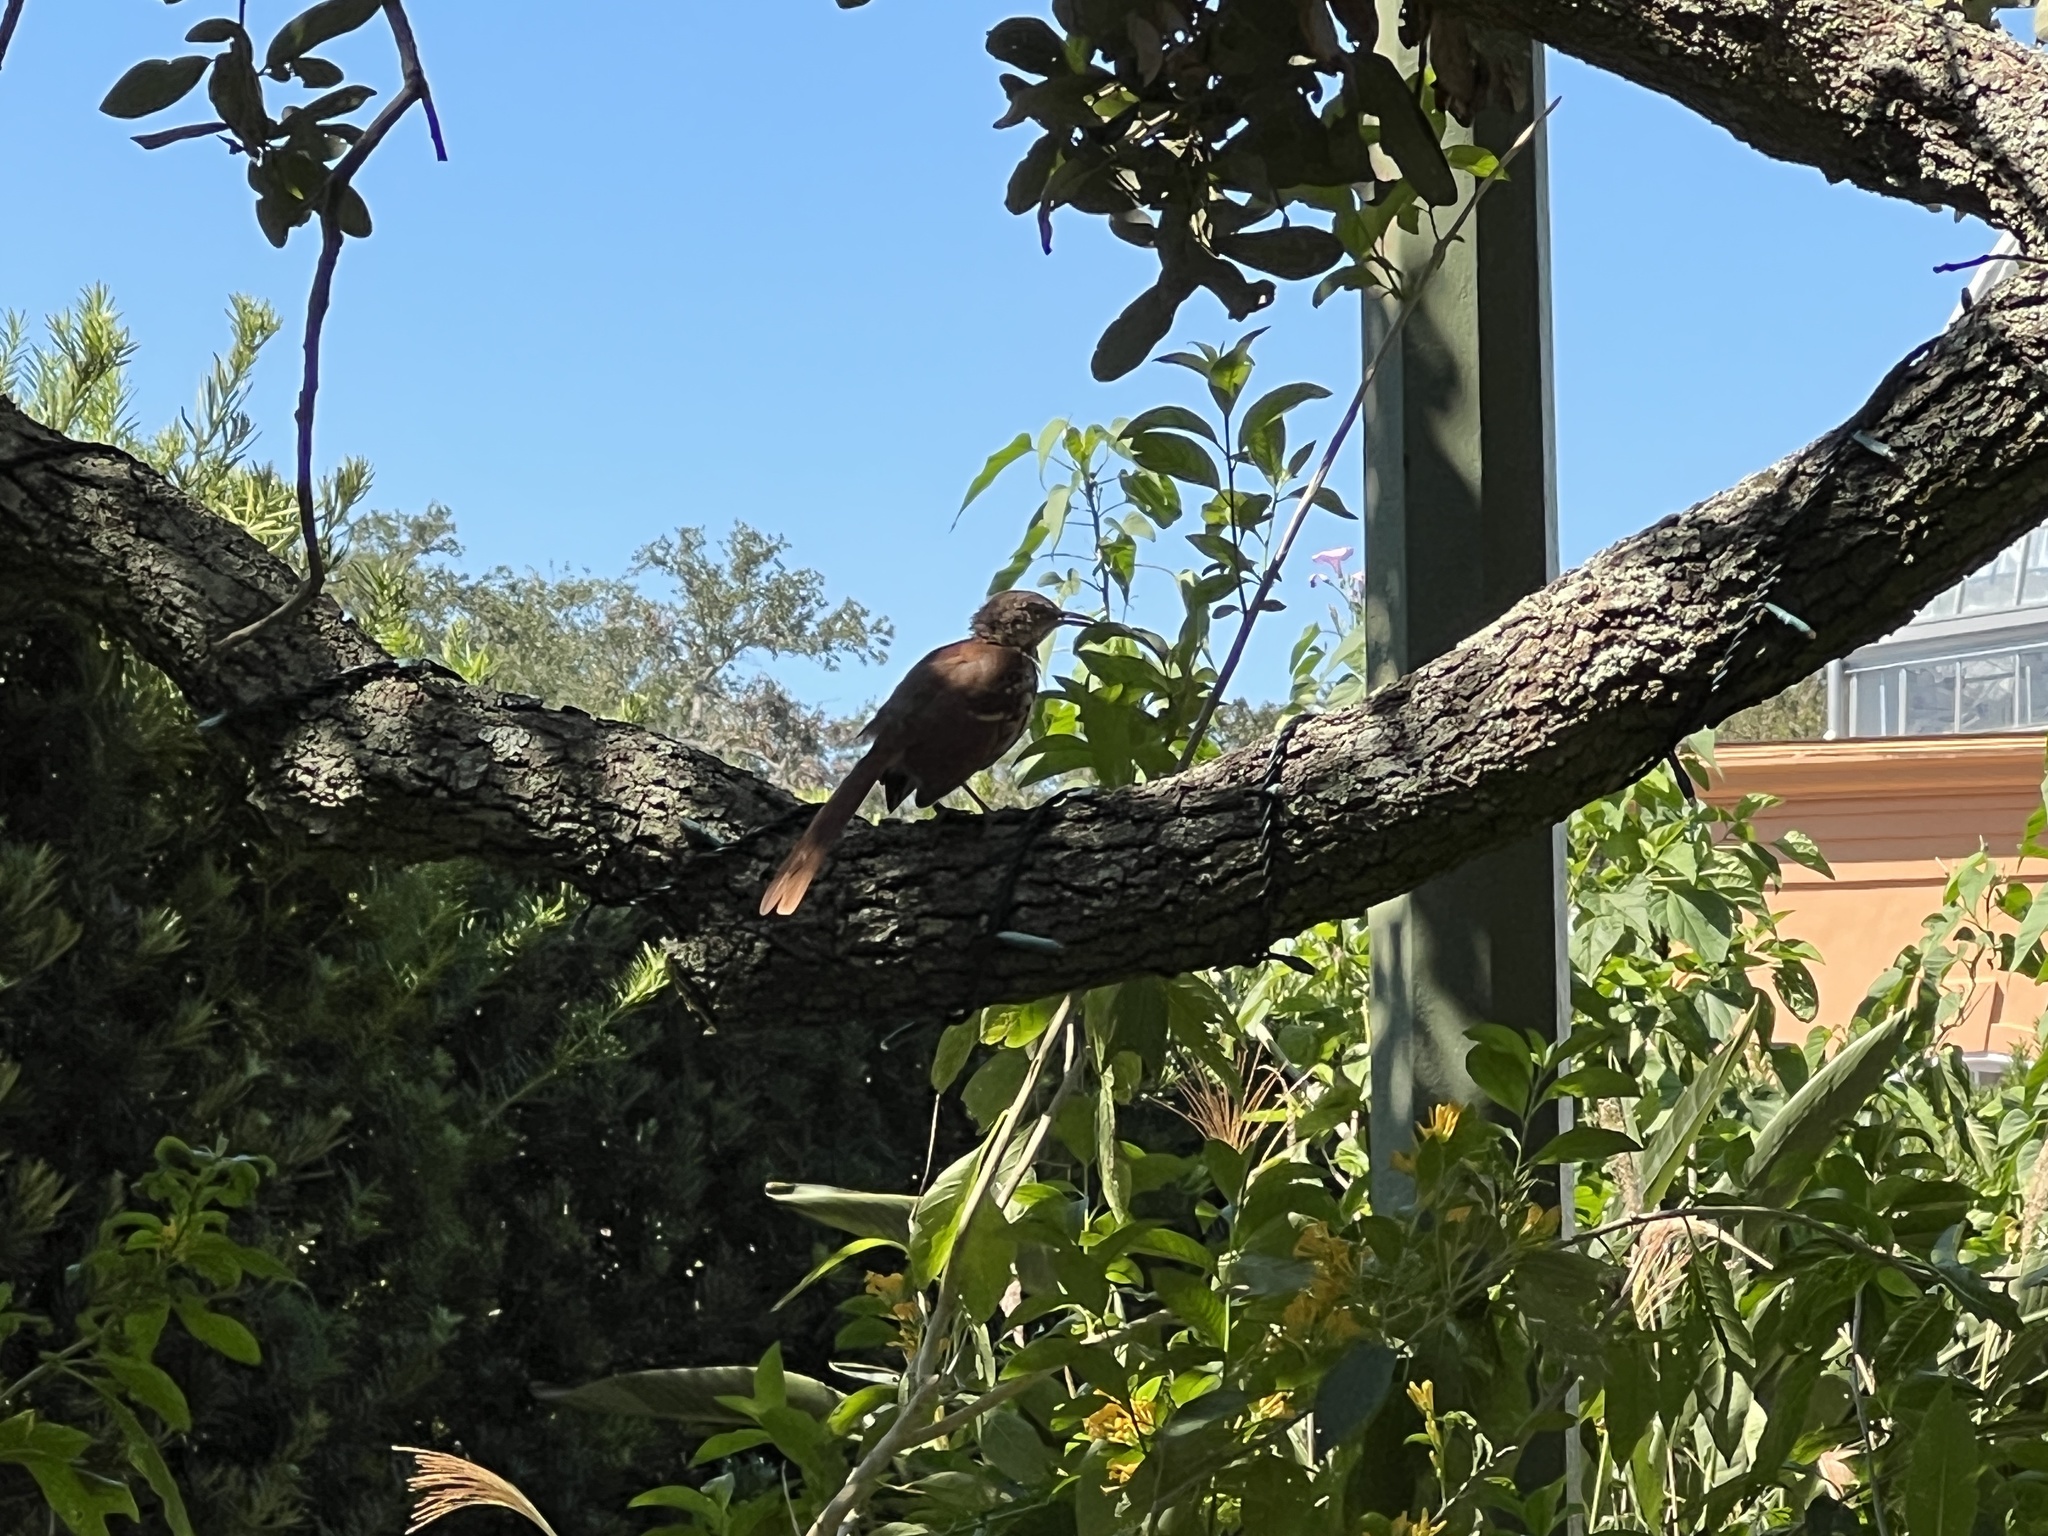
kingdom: Animalia
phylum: Chordata
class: Aves
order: Passeriformes
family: Mimidae
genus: Toxostoma
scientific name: Toxostoma rufum
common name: Brown thrasher
